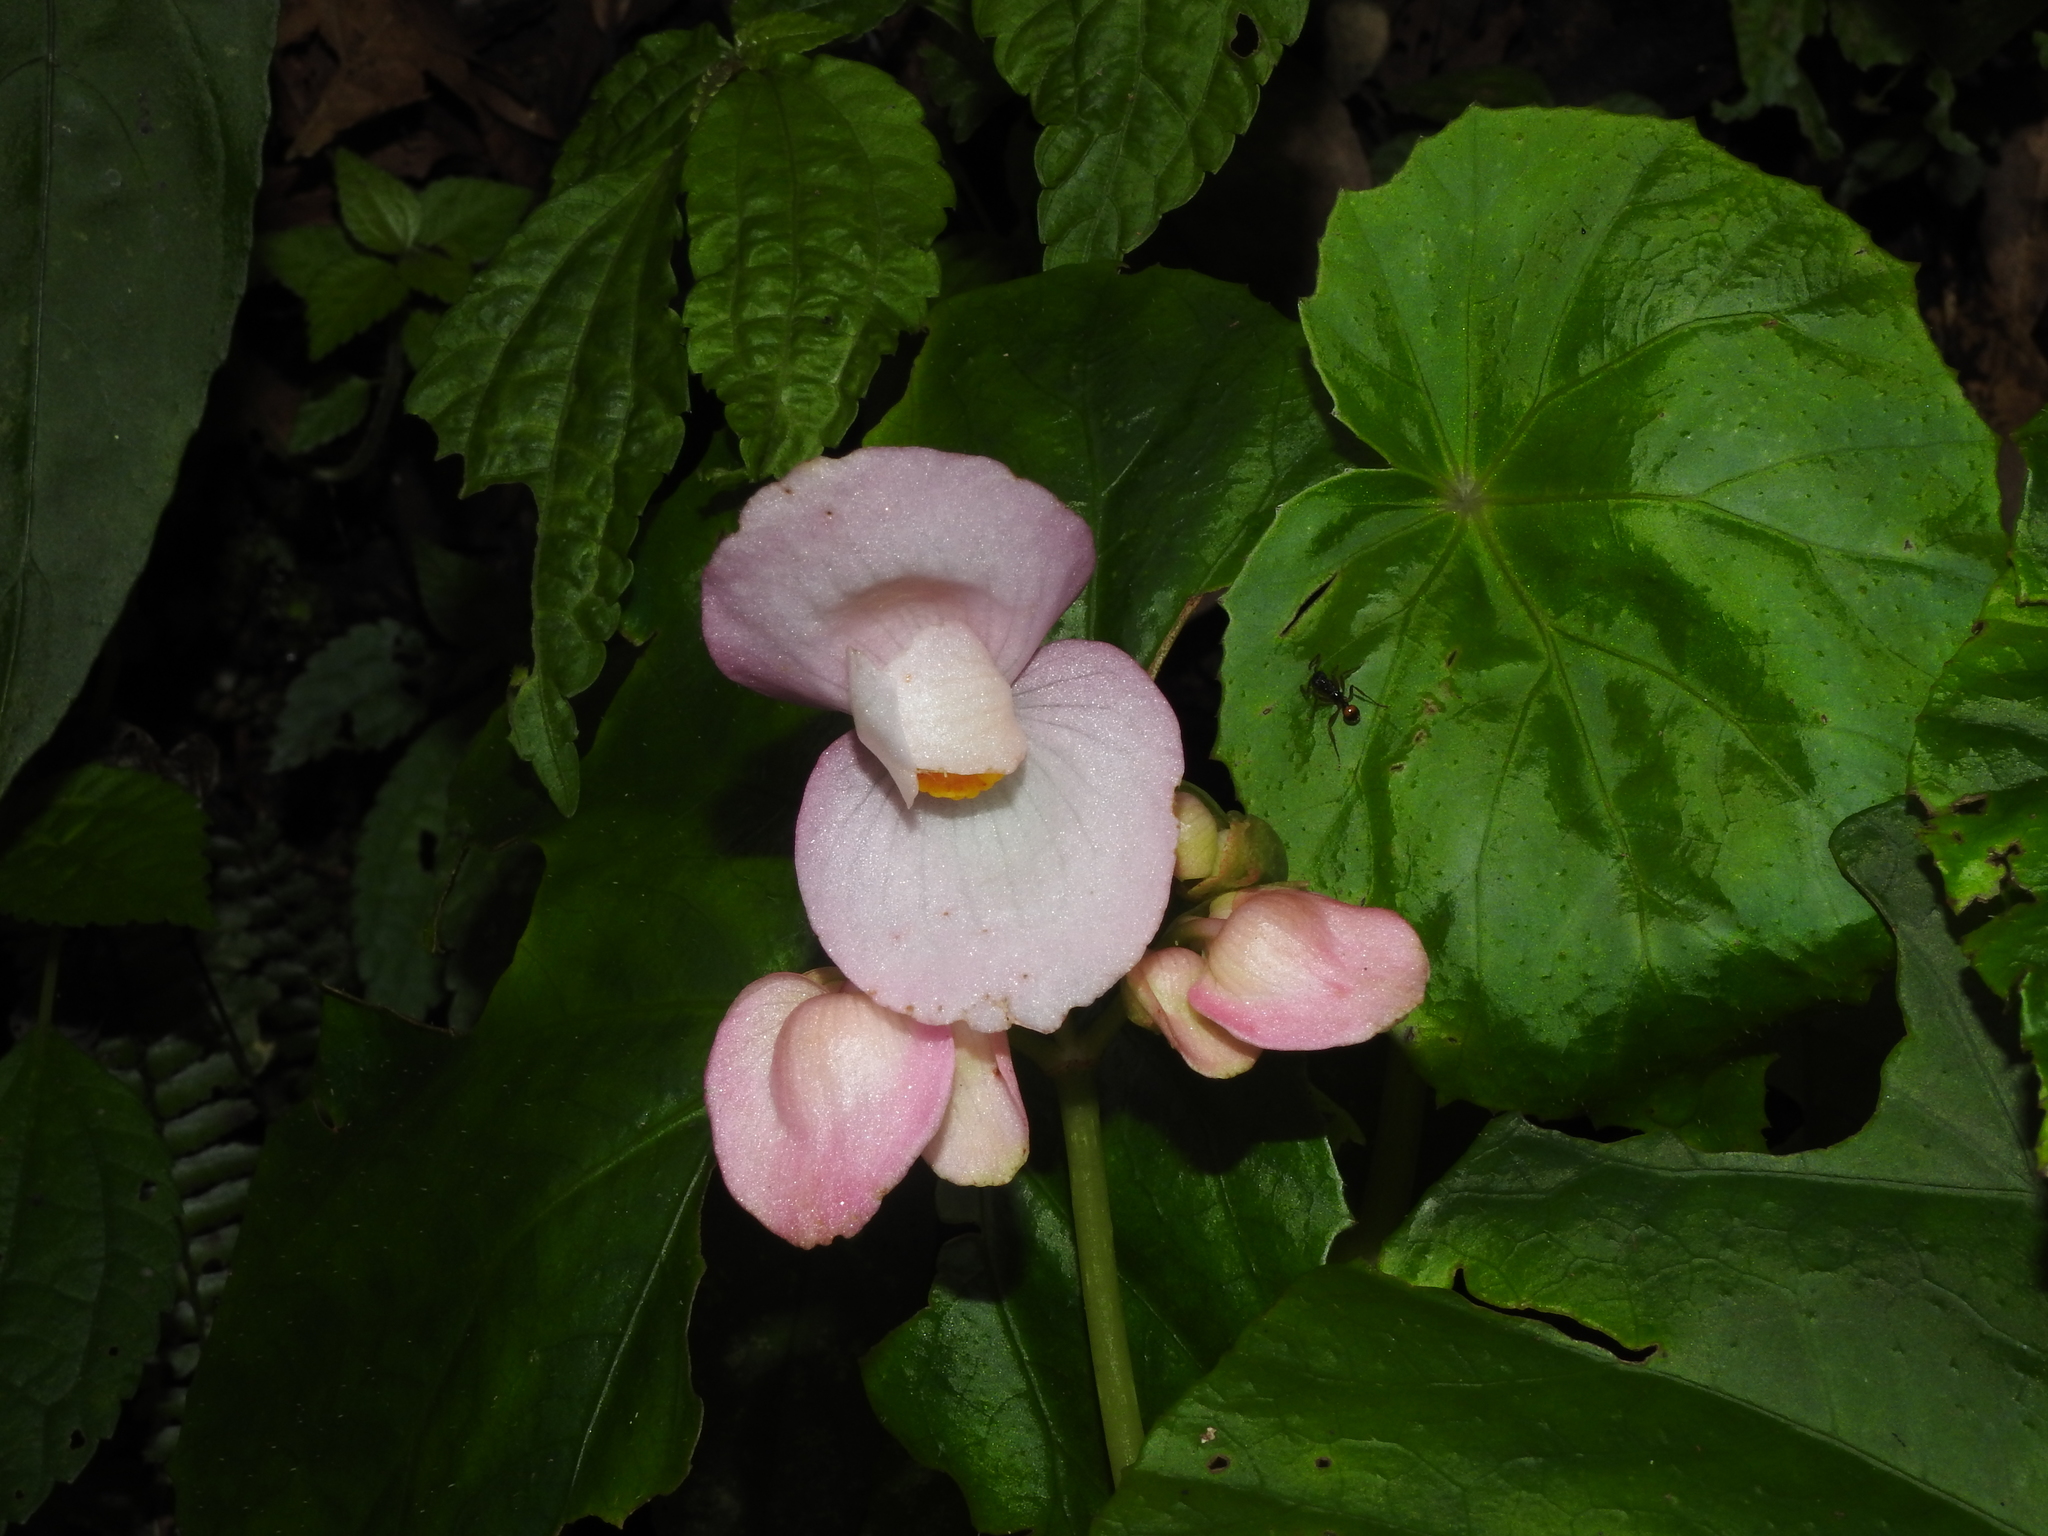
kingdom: Plantae
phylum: Tracheophyta
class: Magnoliopsida
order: Cucurbitales
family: Begoniaceae
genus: Begonia
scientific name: Begonia chitoensis
